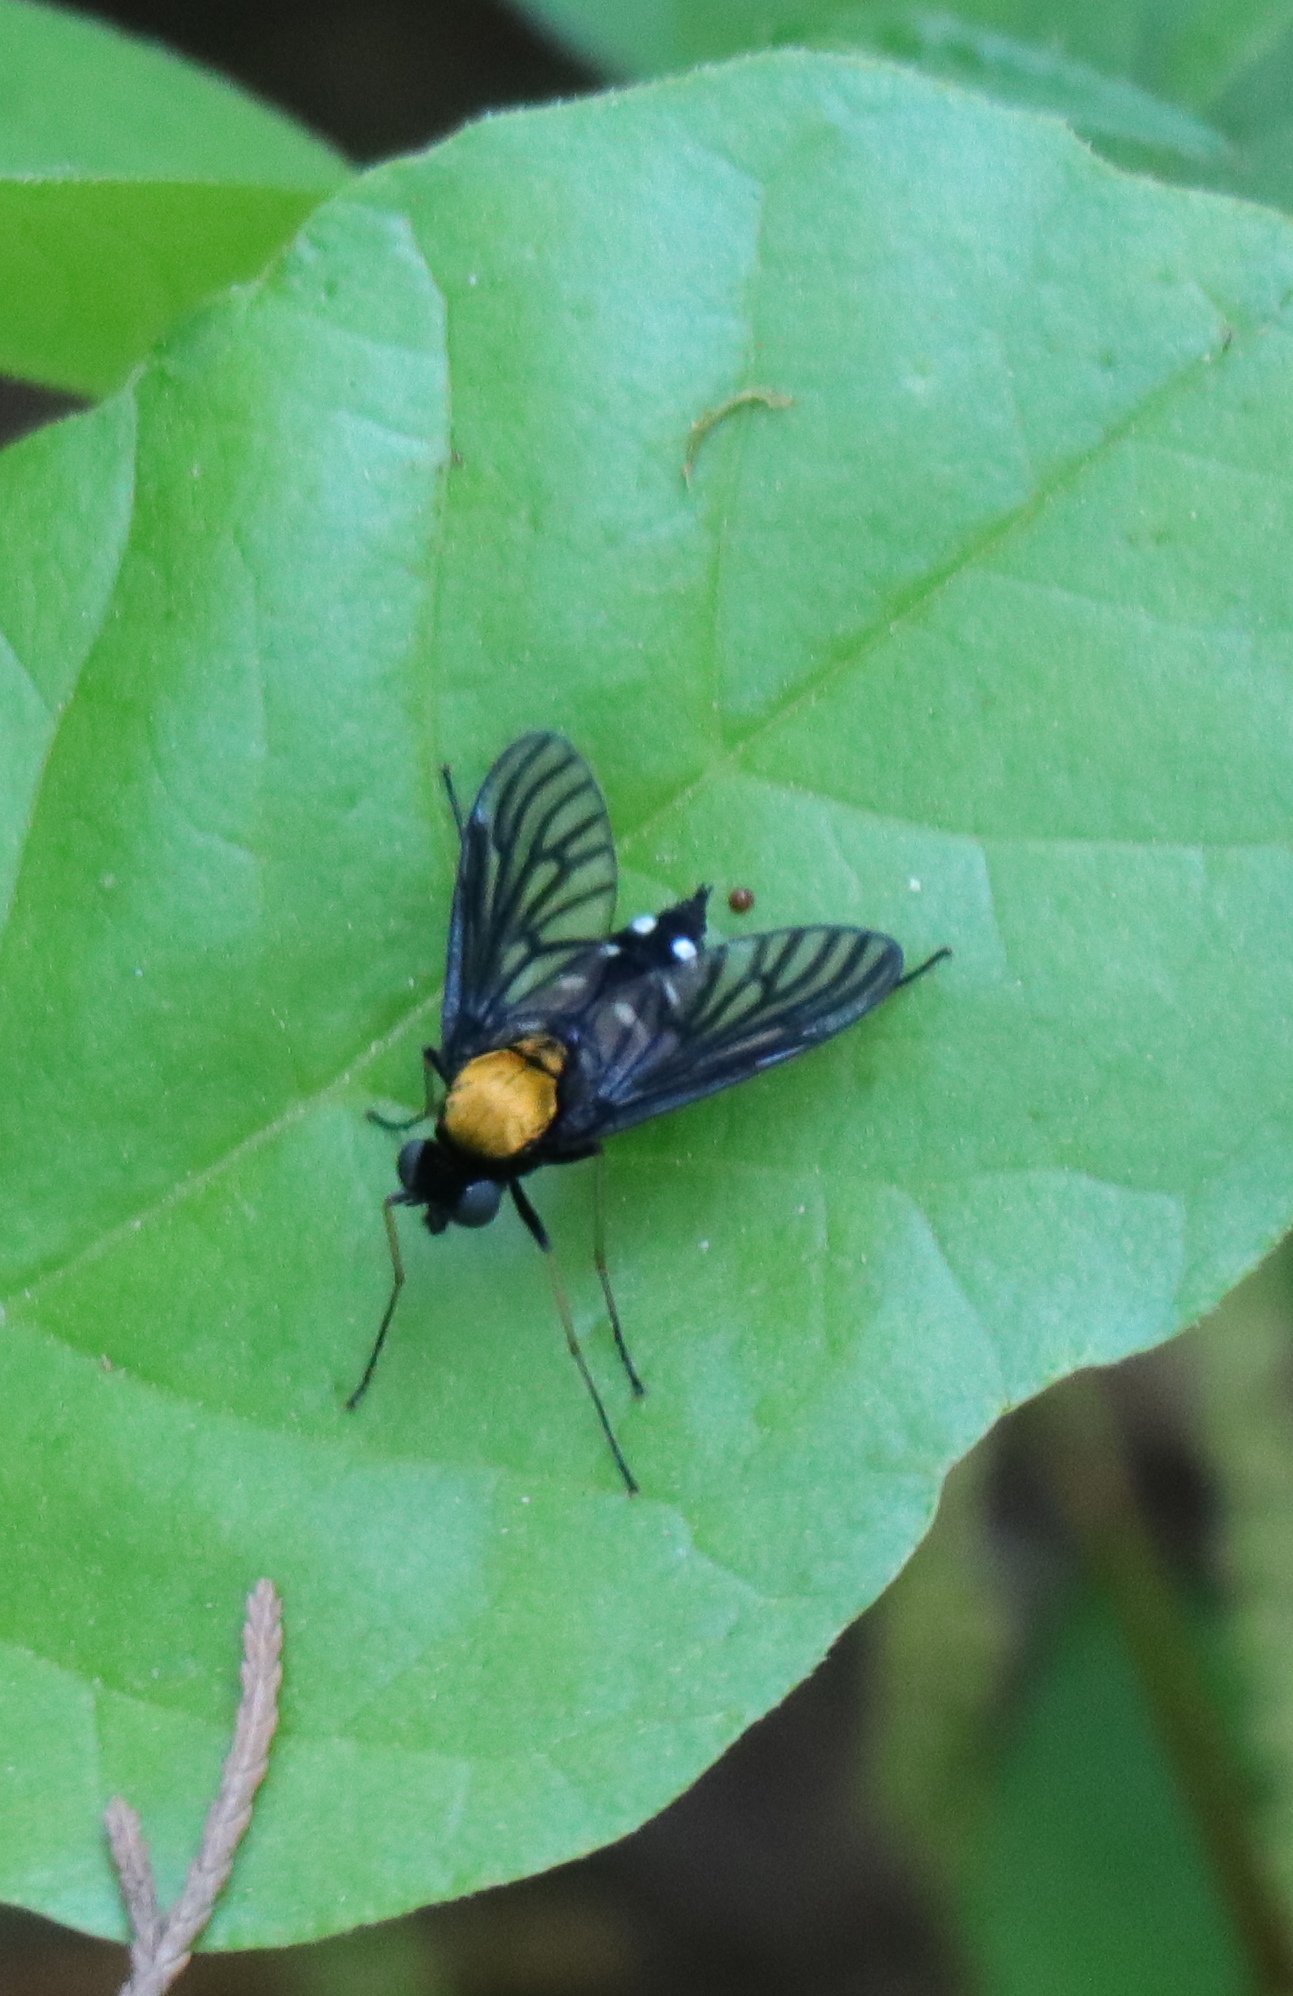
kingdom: Animalia
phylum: Arthropoda
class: Insecta
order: Diptera
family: Rhagionidae
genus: Chrysopilus
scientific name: Chrysopilus thoracicus
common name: Golden-backed snipe fly
